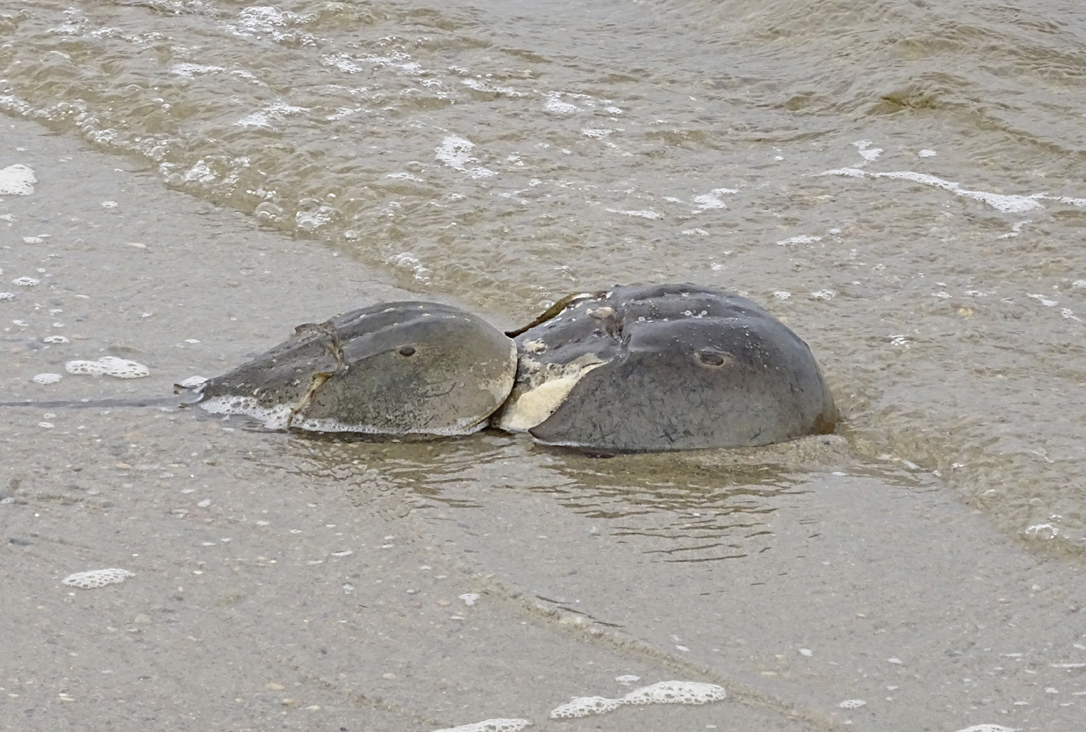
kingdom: Animalia
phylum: Arthropoda
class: Merostomata
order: Xiphosurida
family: Limulidae
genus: Limulus
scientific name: Limulus polyphemus
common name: Horseshoe crab
